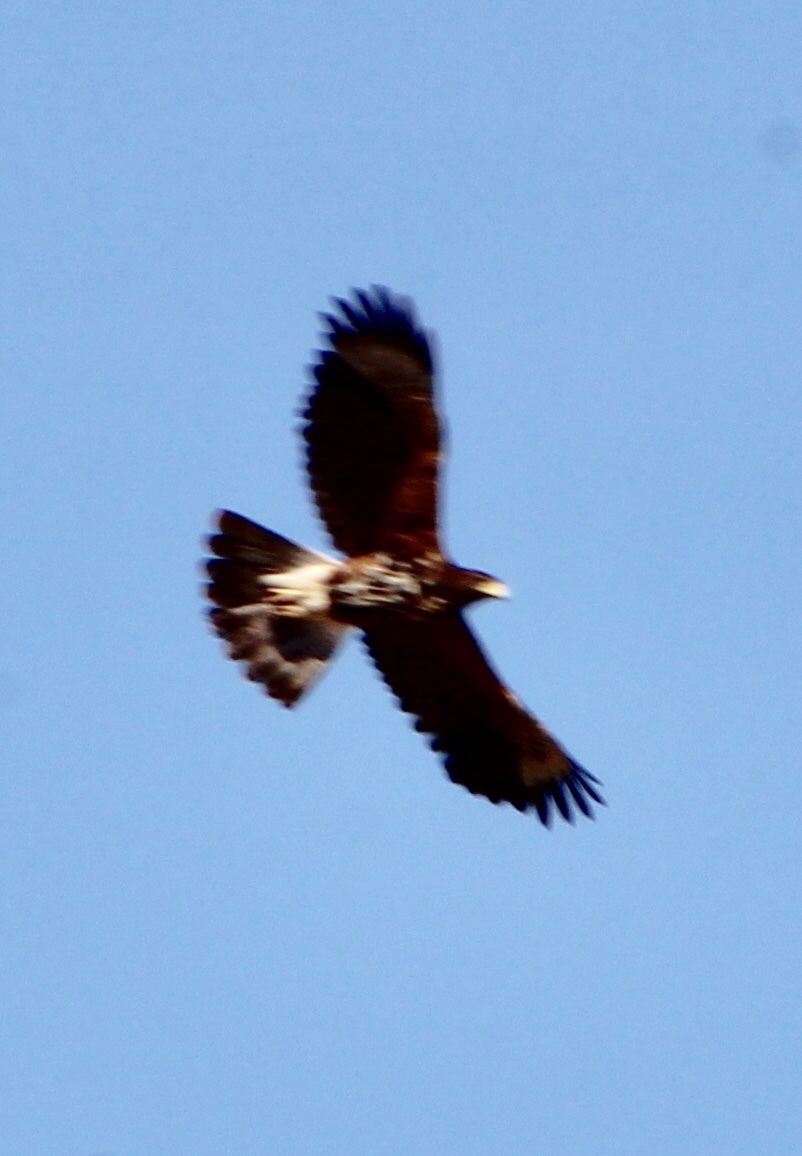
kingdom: Animalia
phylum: Chordata
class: Aves
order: Accipitriformes
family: Accipitridae
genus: Parabuteo
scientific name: Parabuteo unicinctus
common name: Harris's hawk
